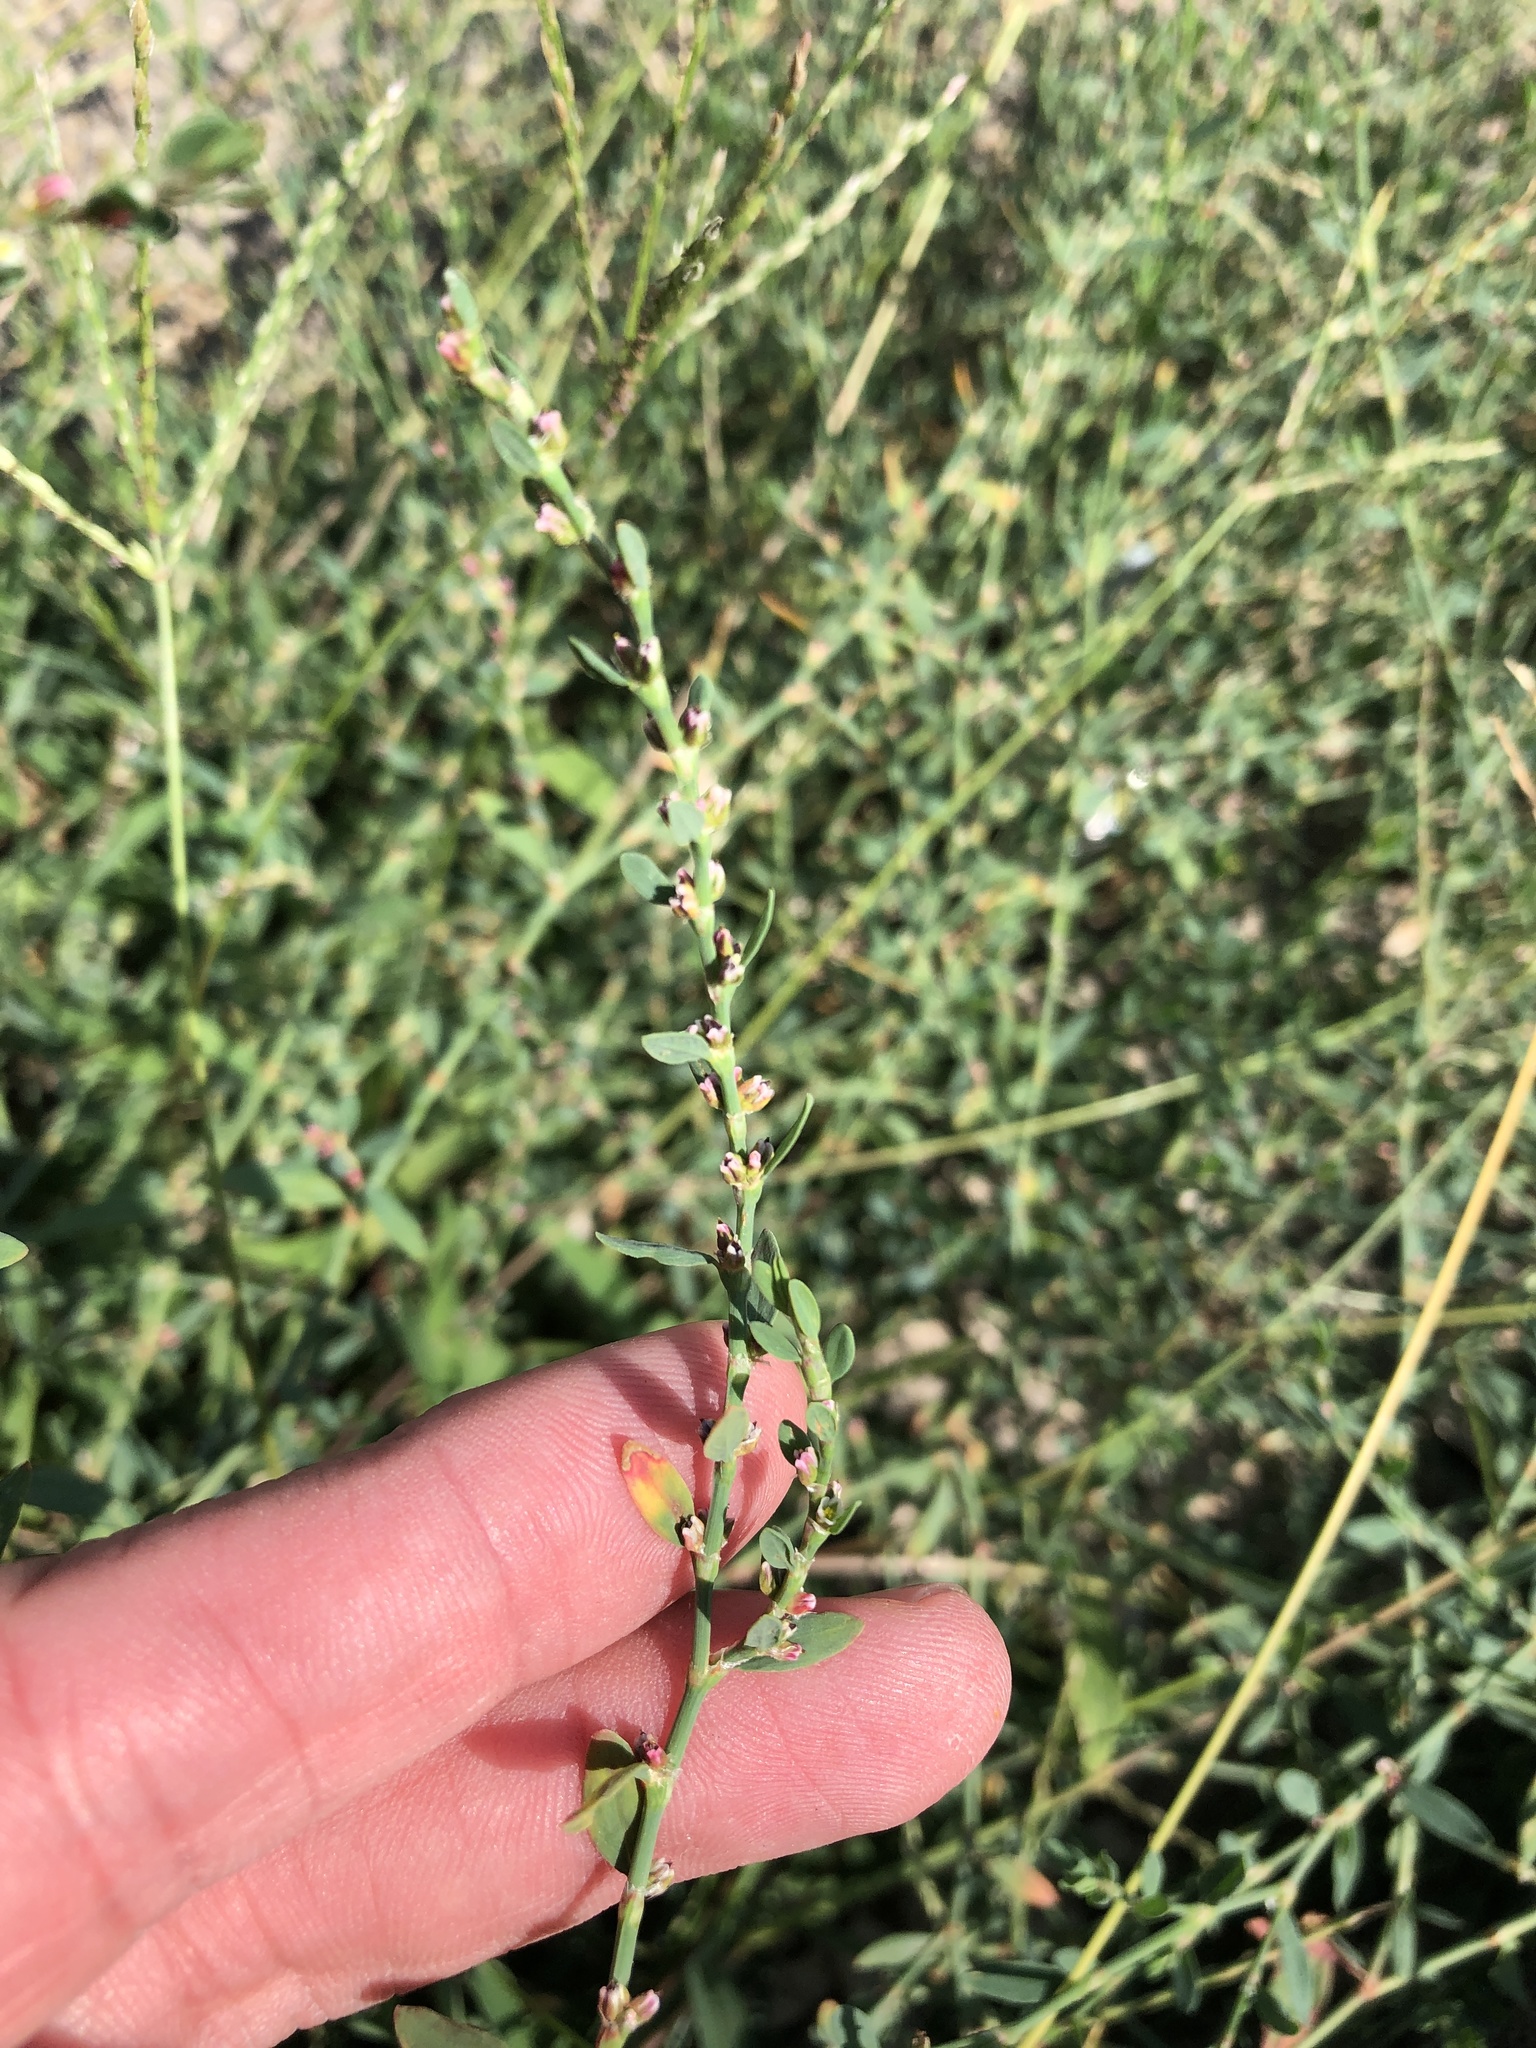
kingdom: Plantae
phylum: Tracheophyta
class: Magnoliopsida
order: Caryophyllales
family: Polygonaceae
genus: Polygonum
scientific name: Polygonum aviculare
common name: Prostrate knotweed
